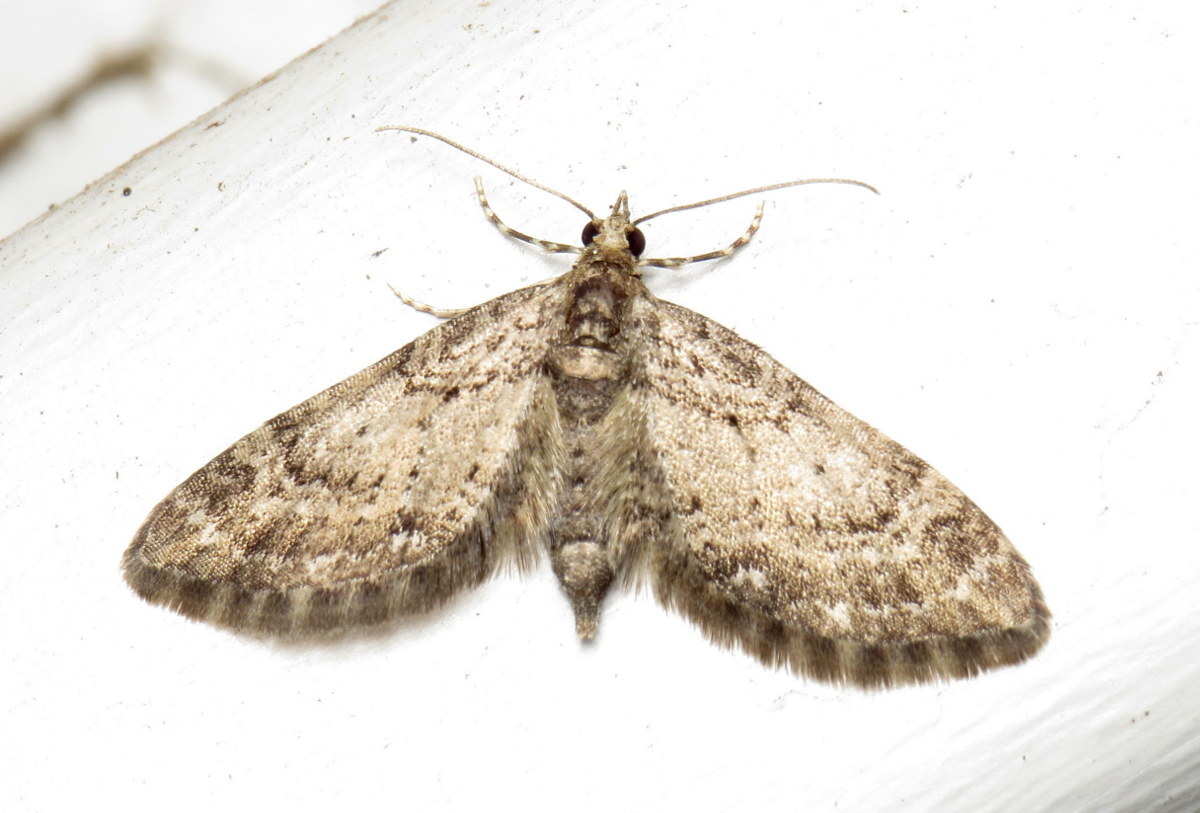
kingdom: Animalia
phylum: Arthropoda
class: Insecta
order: Lepidoptera
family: Geometridae
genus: Eupithecia
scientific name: Eupithecia
